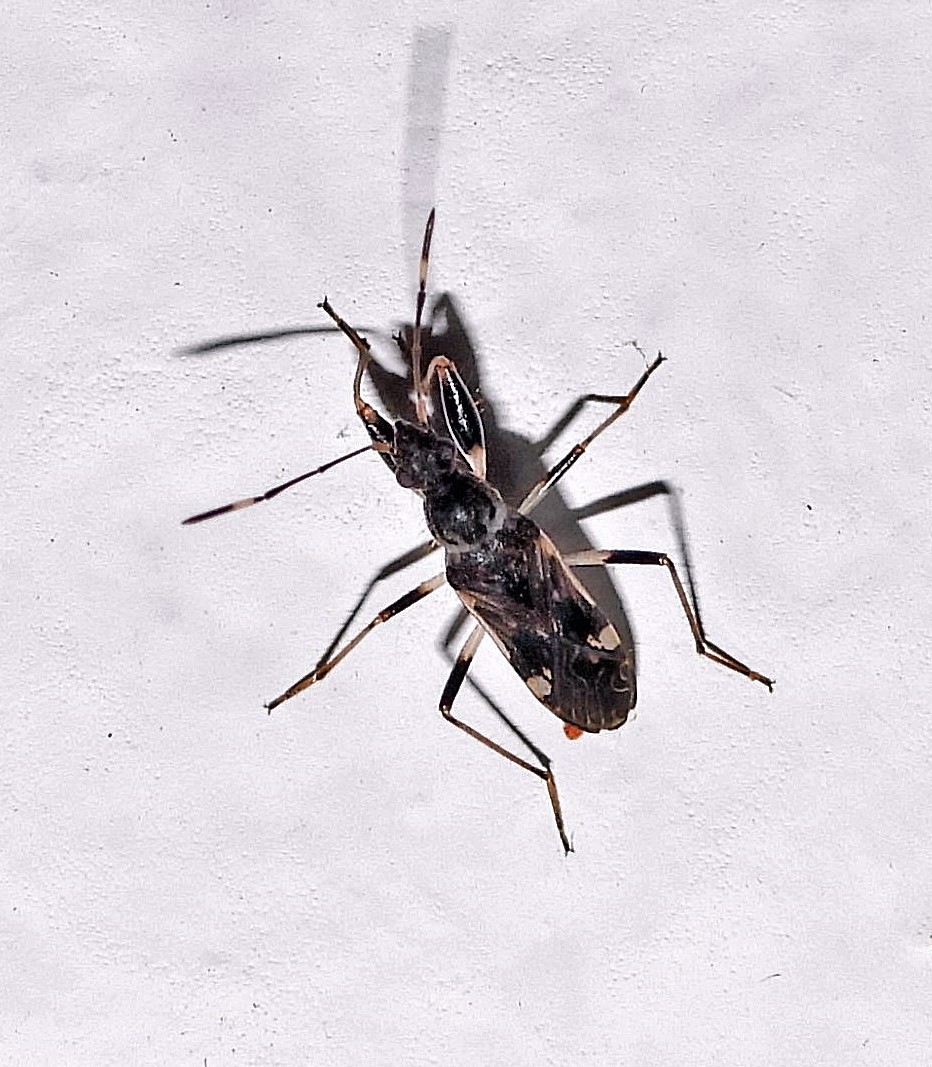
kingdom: Animalia
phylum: Arthropoda
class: Insecta
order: Hemiptera
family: Rhyparochromidae
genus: Baranowskiobius
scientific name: Baranowskiobius bimaculatus
